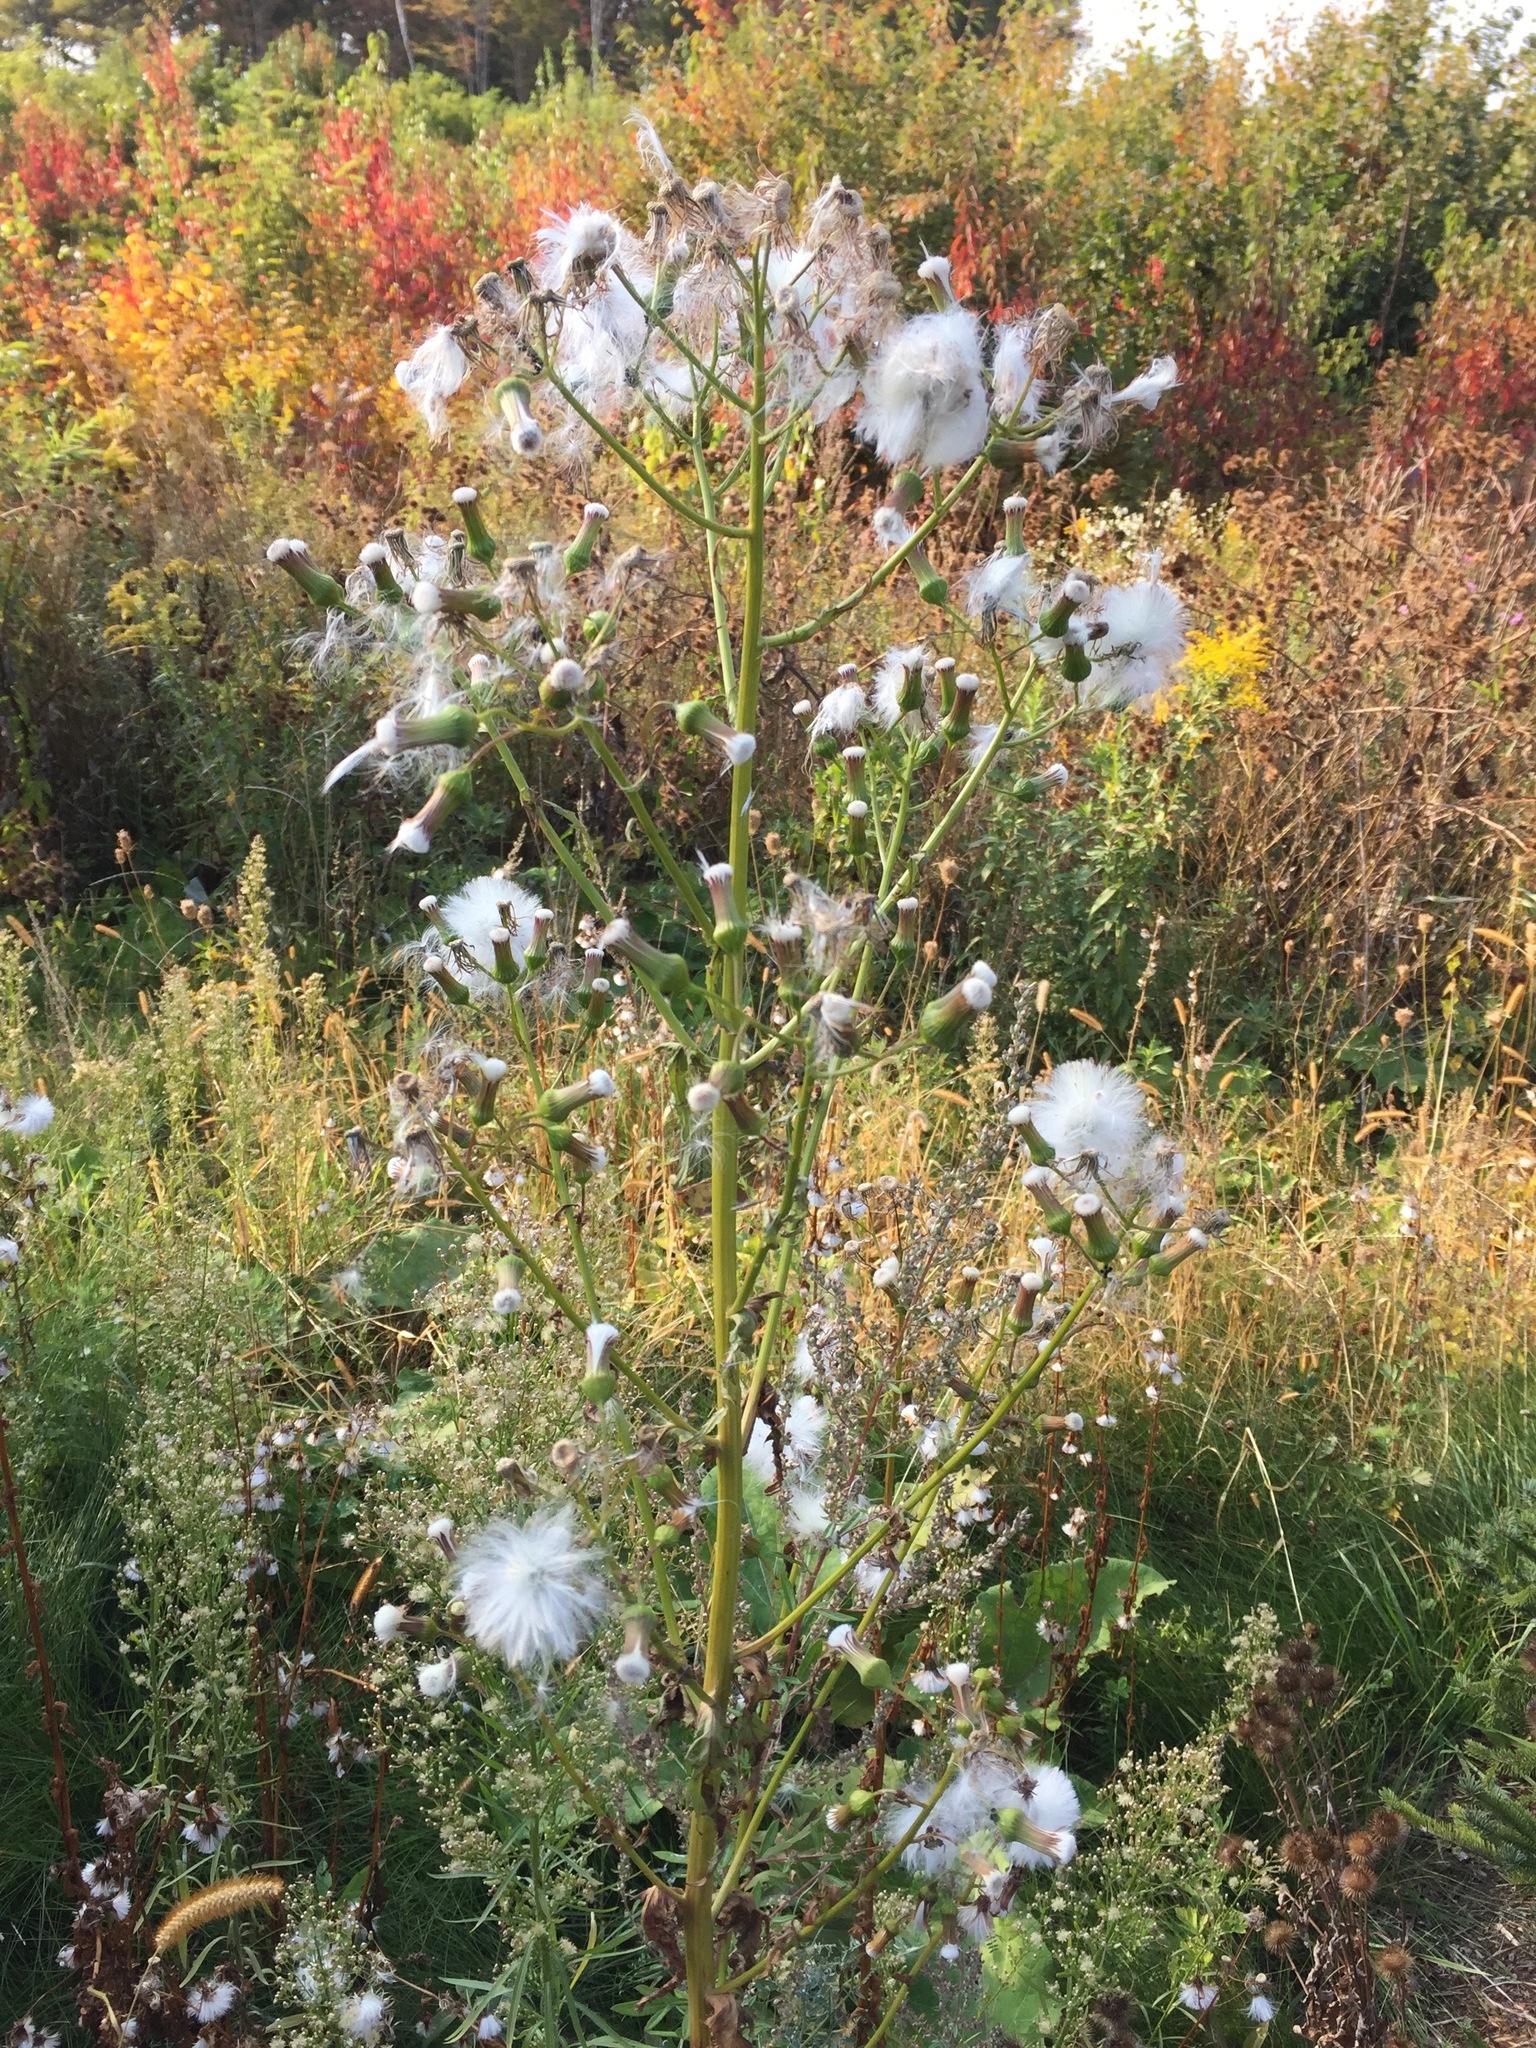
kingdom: Plantae
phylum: Tracheophyta
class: Magnoliopsida
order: Asterales
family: Asteraceae
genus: Erechtites
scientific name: Erechtites hieraciifolius
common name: American burnweed
